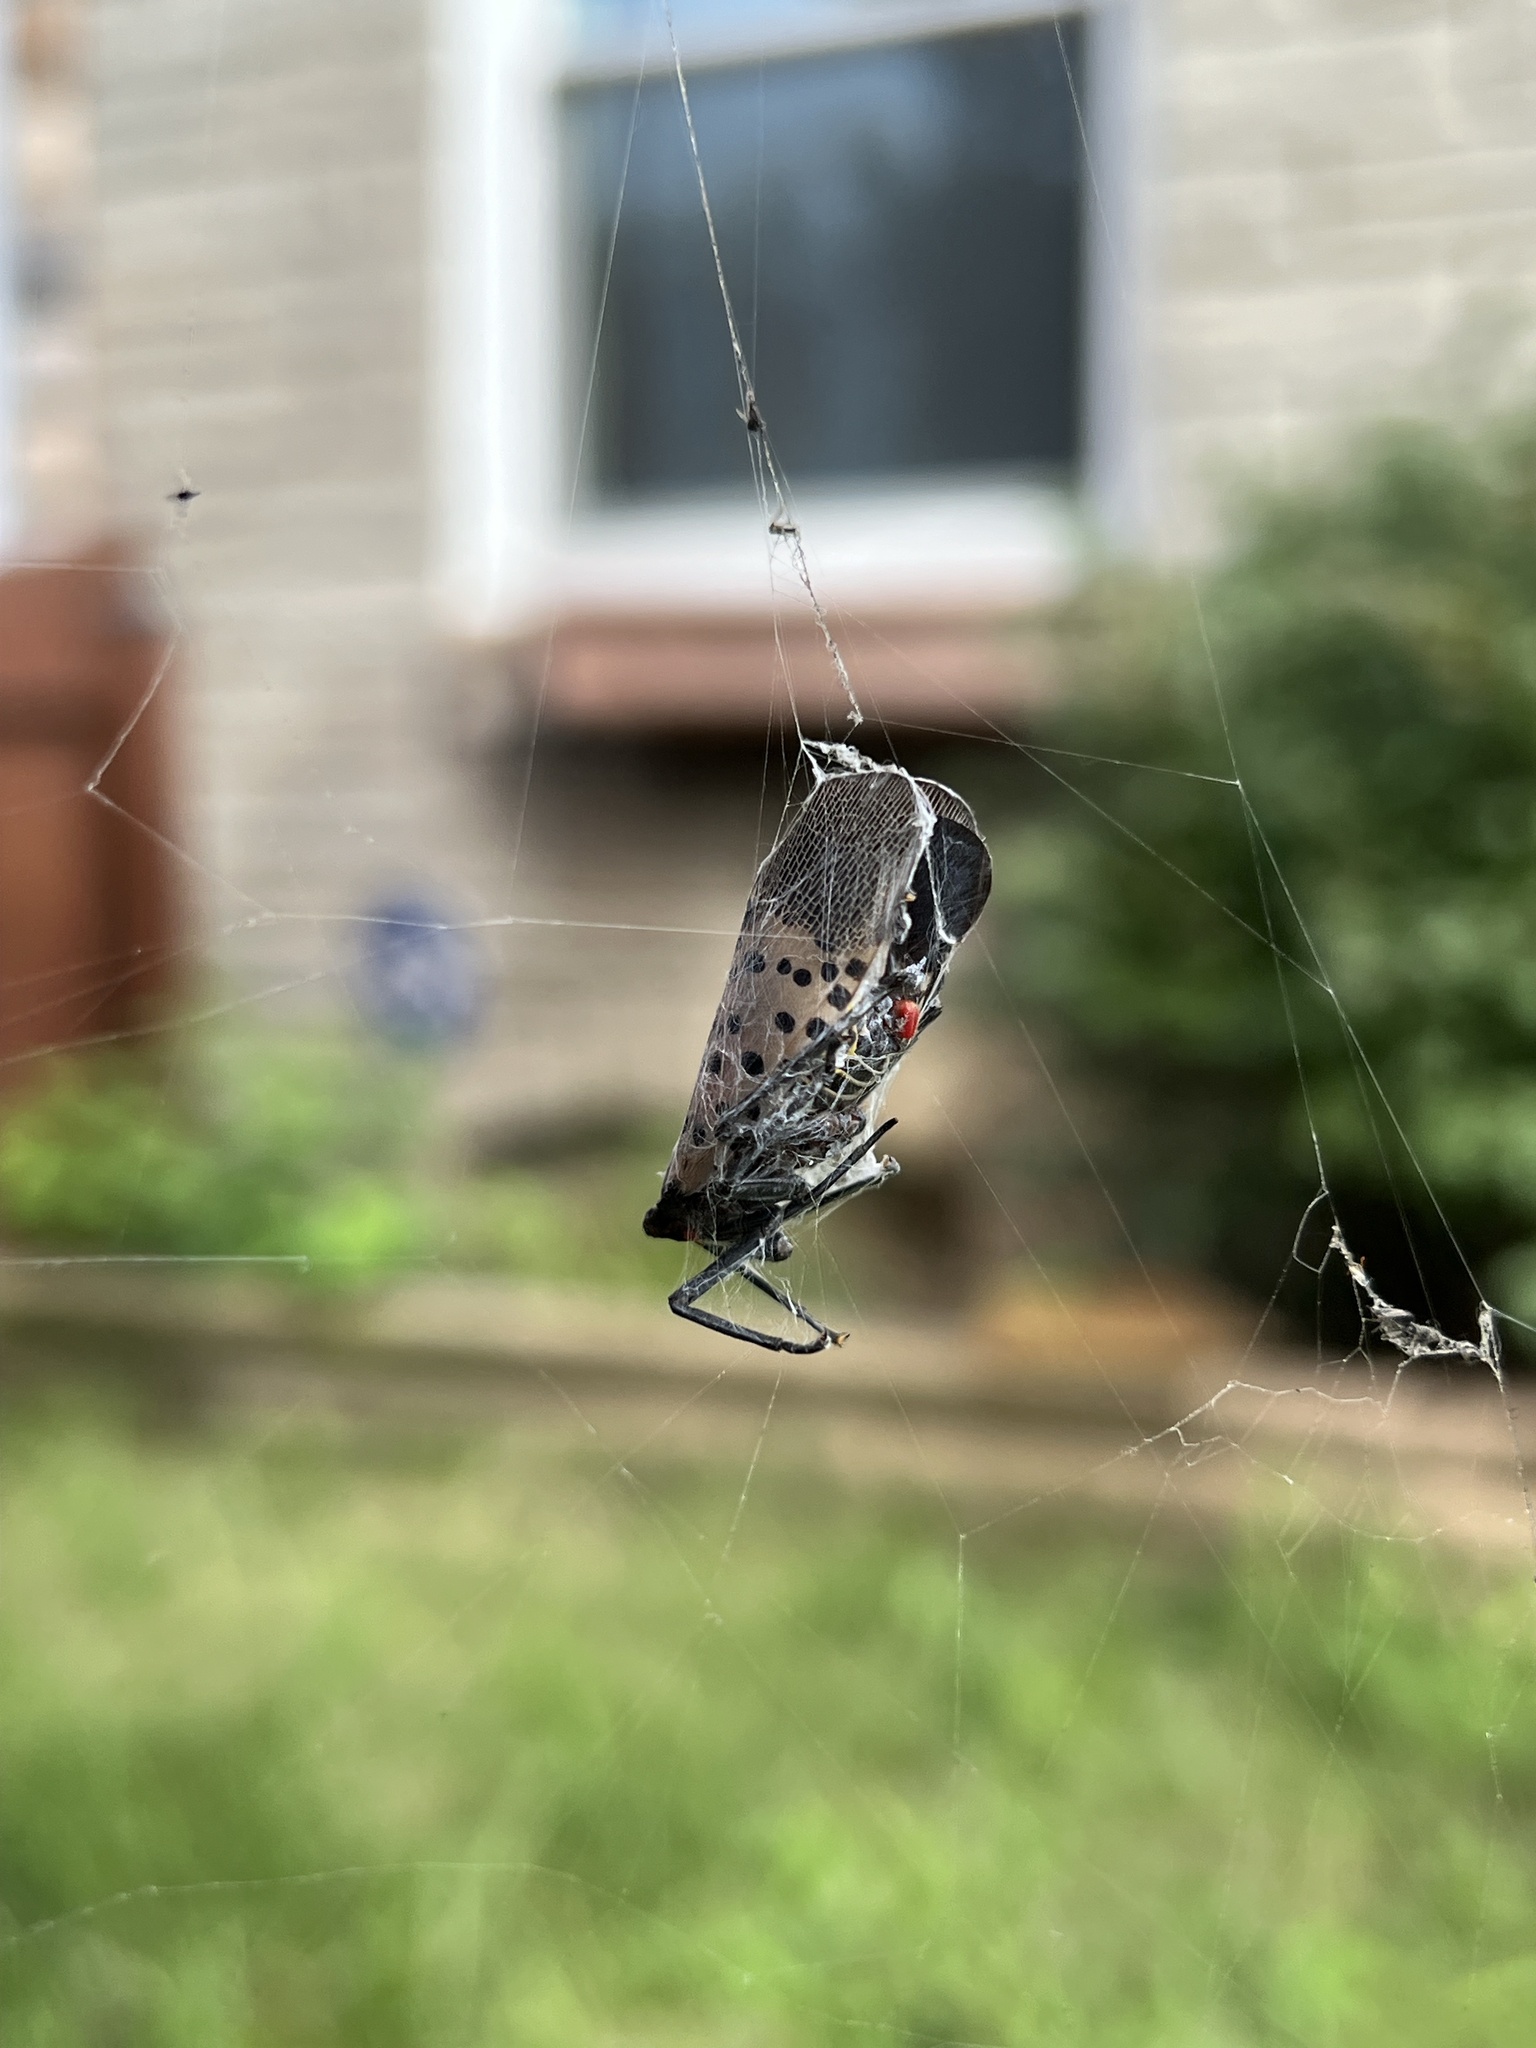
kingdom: Animalia
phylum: Arthropoda
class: Insecta
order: Hemiptera
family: Fulgoridae
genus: Lycorma
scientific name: Lycorma delicatula
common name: Spotted lanternfly
